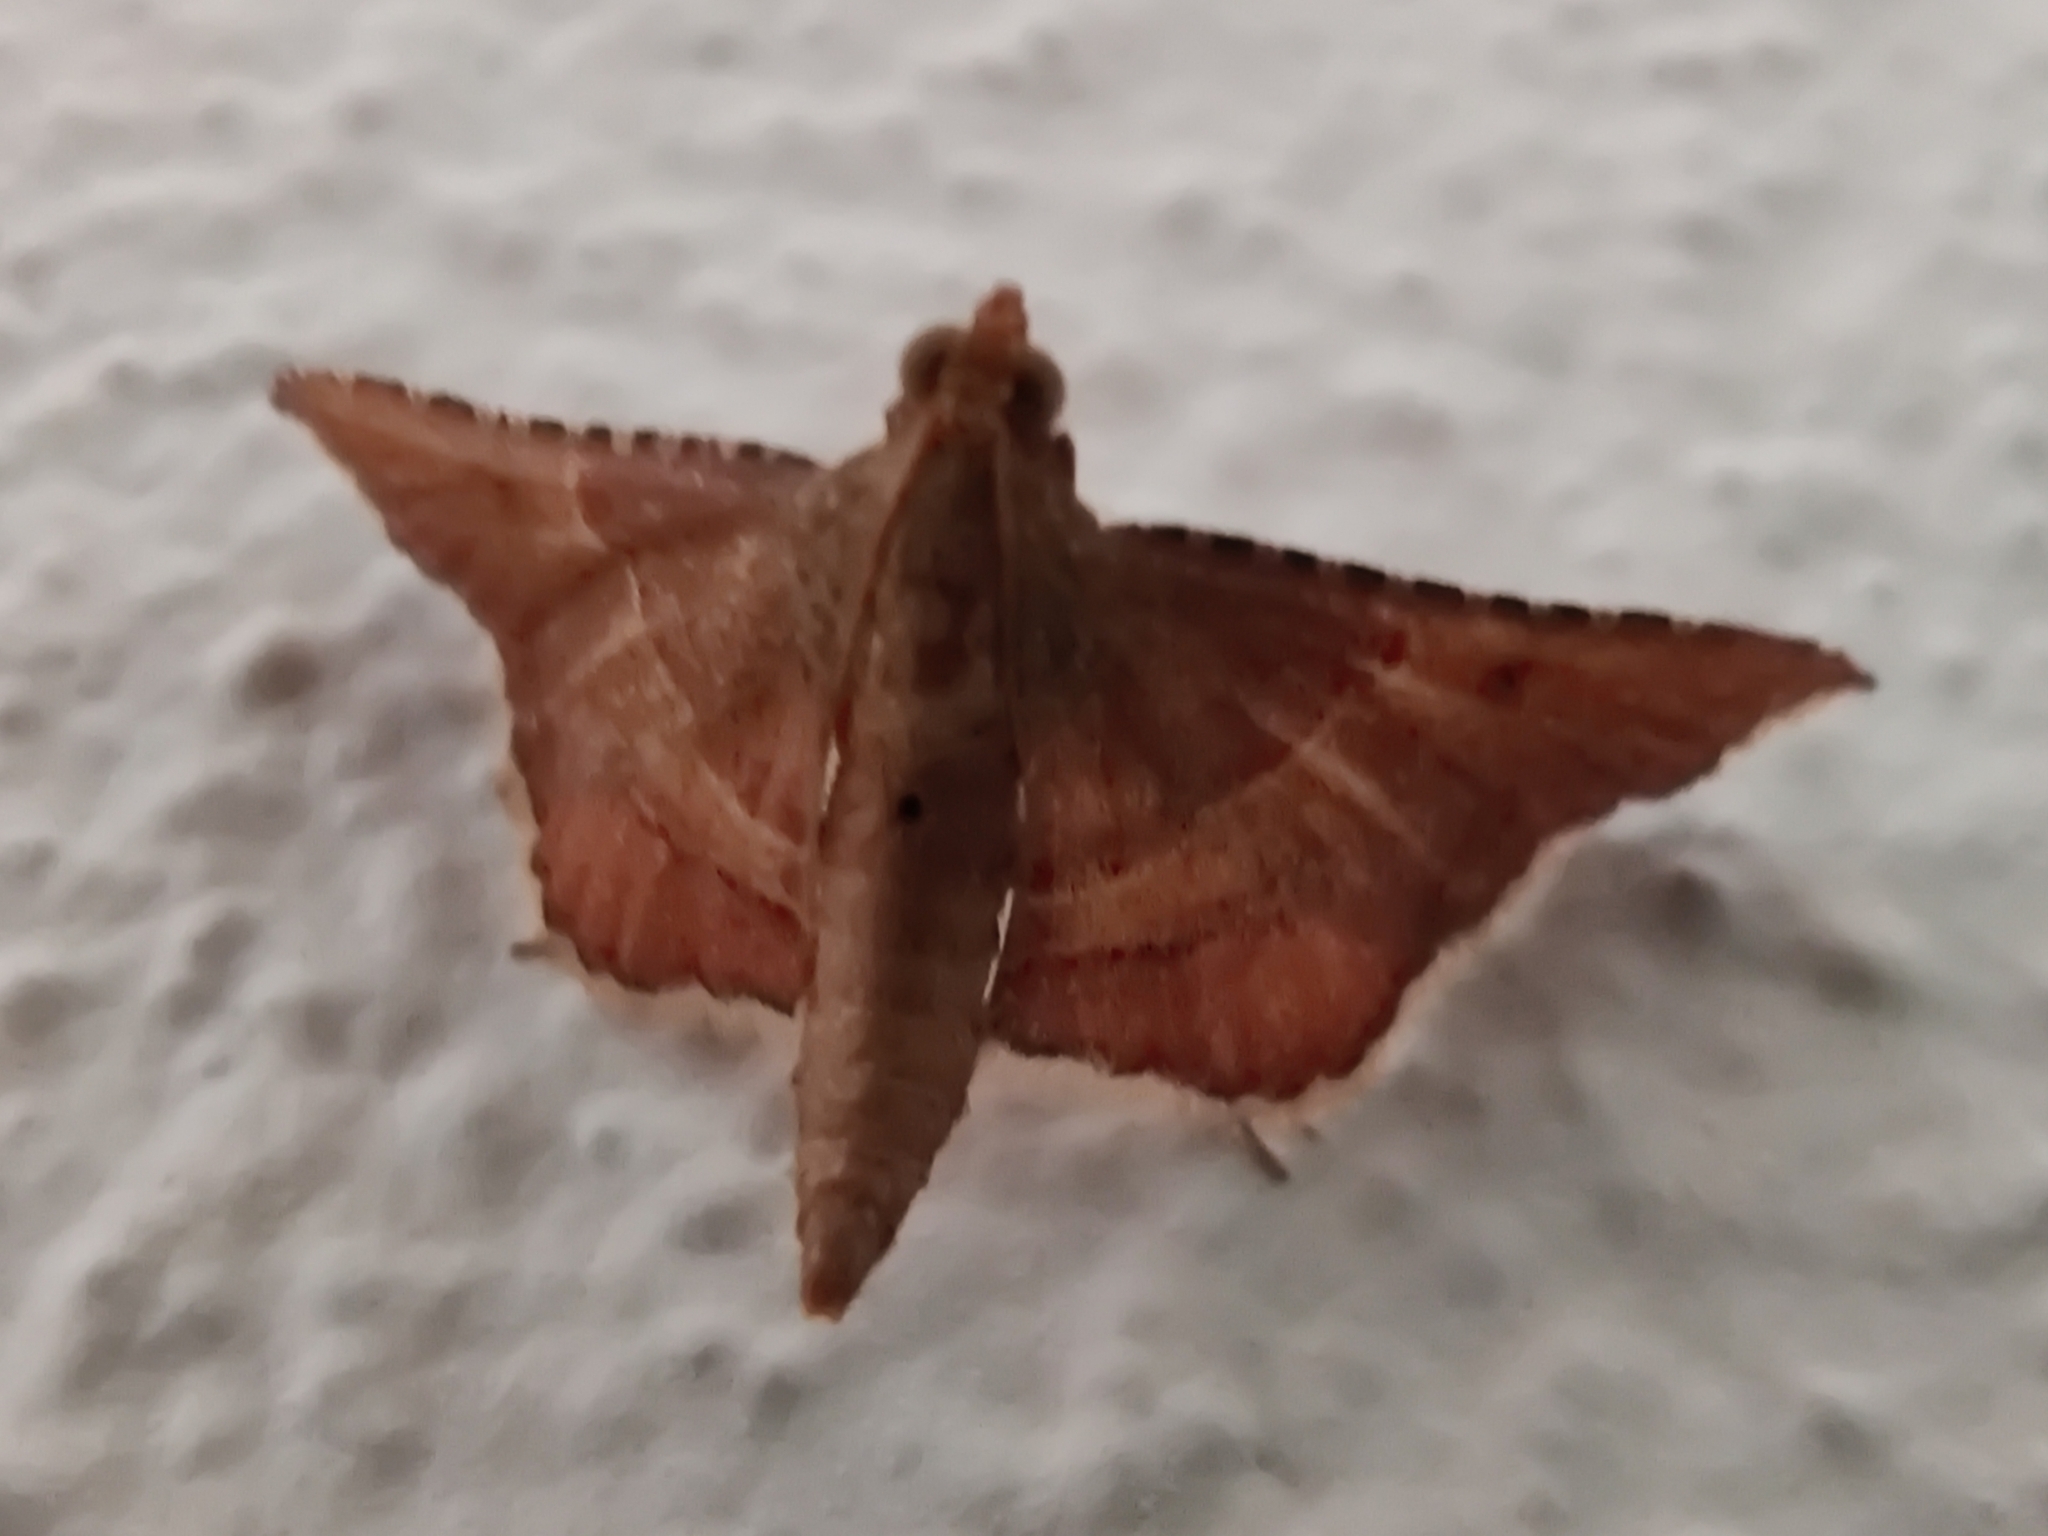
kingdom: Animalia
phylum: Arthropoda
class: Insecta
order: Lepidoptera
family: Pyralidae
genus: Endotricha
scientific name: Endotricha flammealis
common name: Rosy tabby
